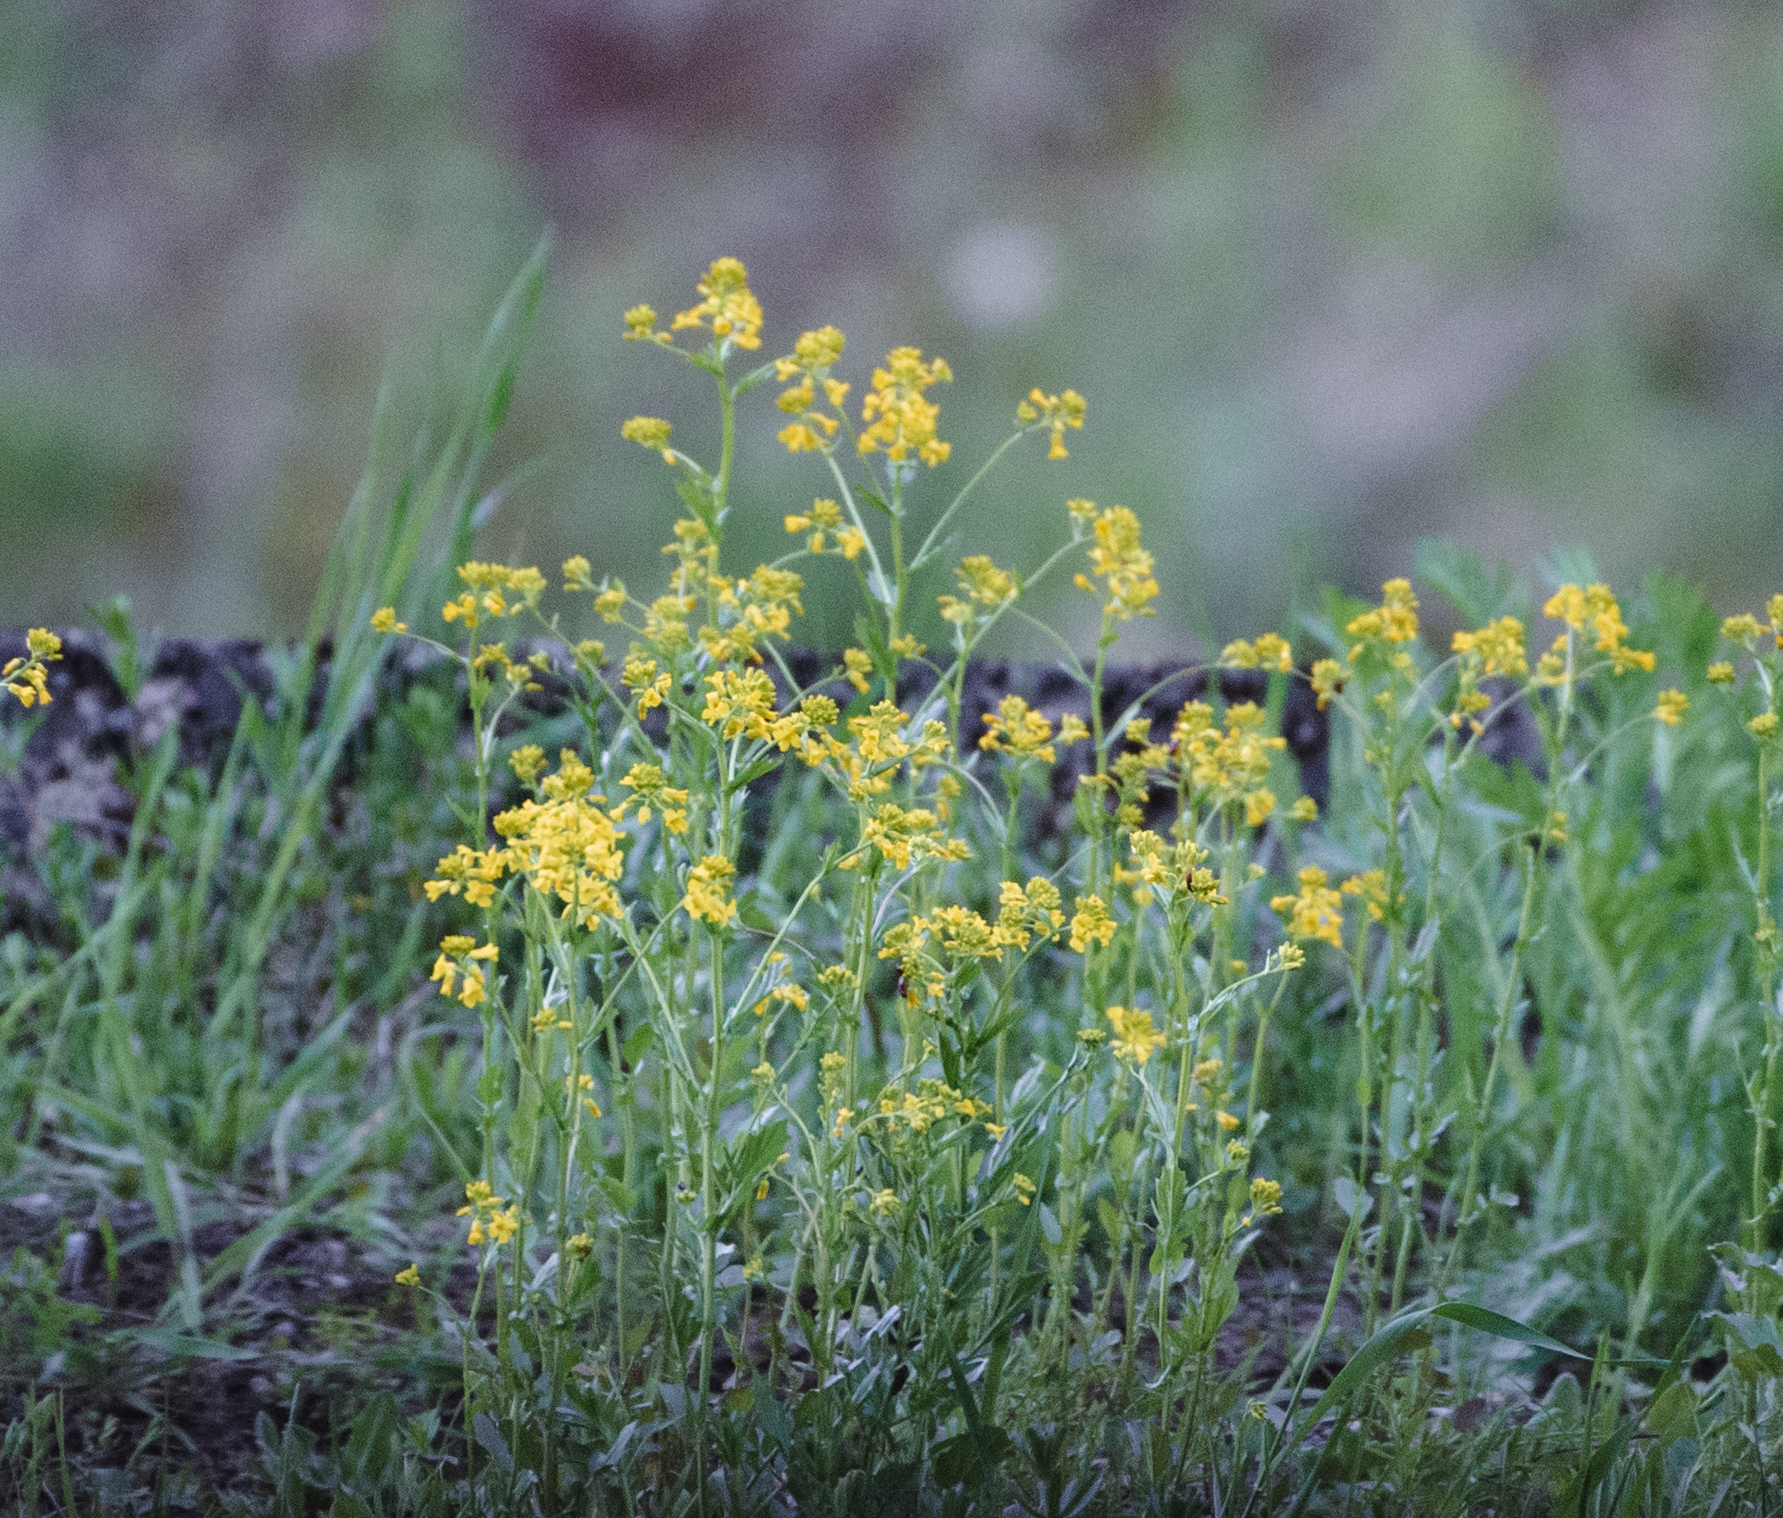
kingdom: Plantae
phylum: Tracheophyta
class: Magnoliopsida
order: Brassicales
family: Brassicaceae
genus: Barbarea
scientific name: Barbarea vulgaris
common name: Cressy-greens
